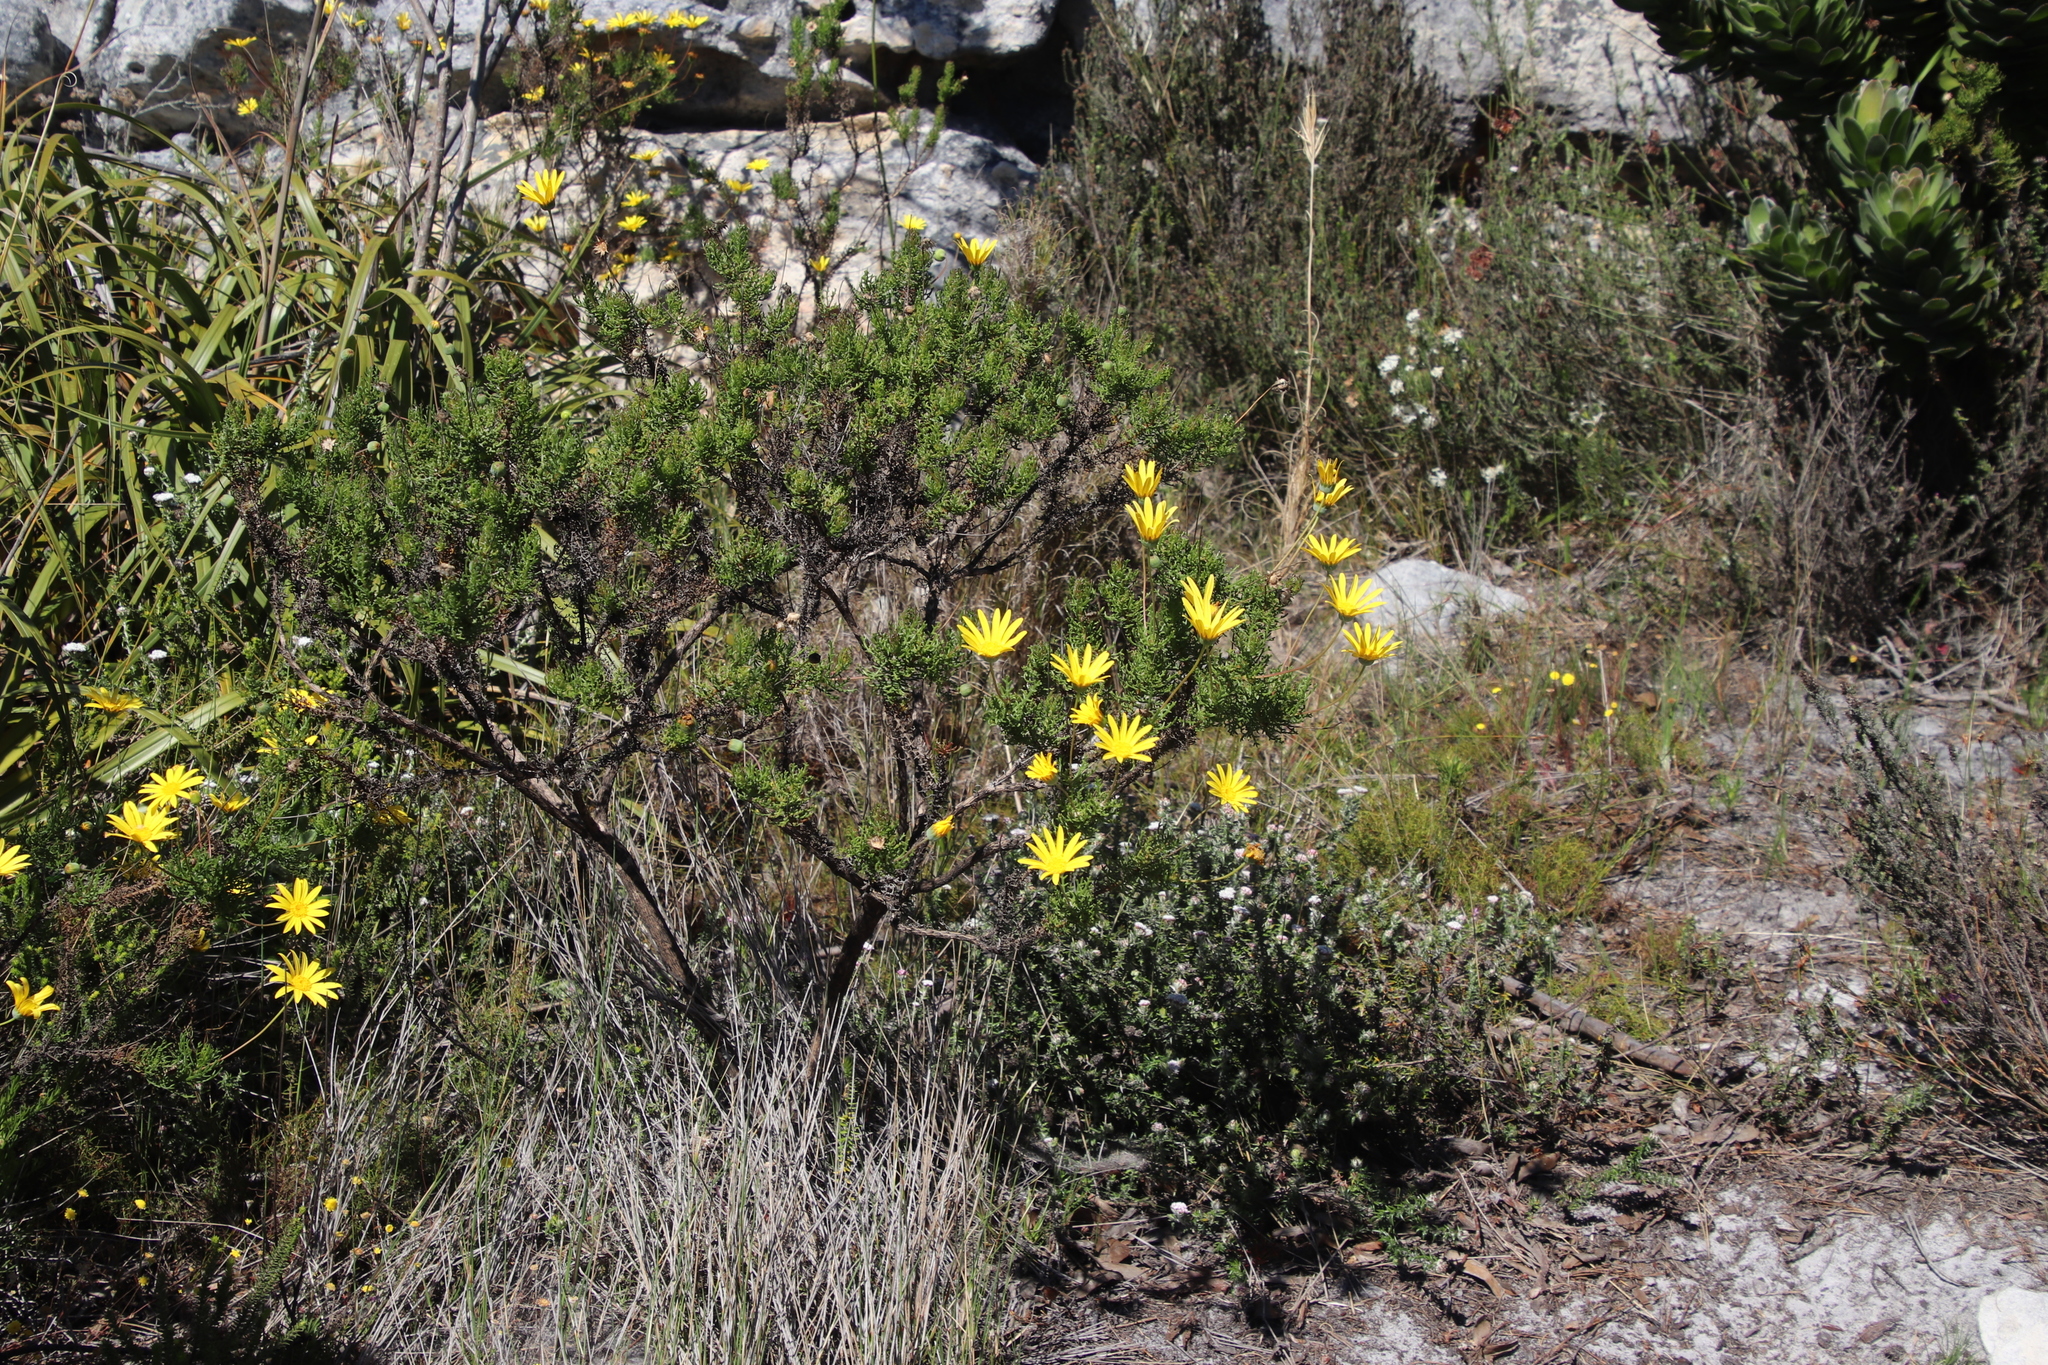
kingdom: Plantae
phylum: Tracheophyta
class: Magnoliopsida
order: Asterales
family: Asteraceae
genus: Euryops
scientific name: Euryops abrotanifolius
